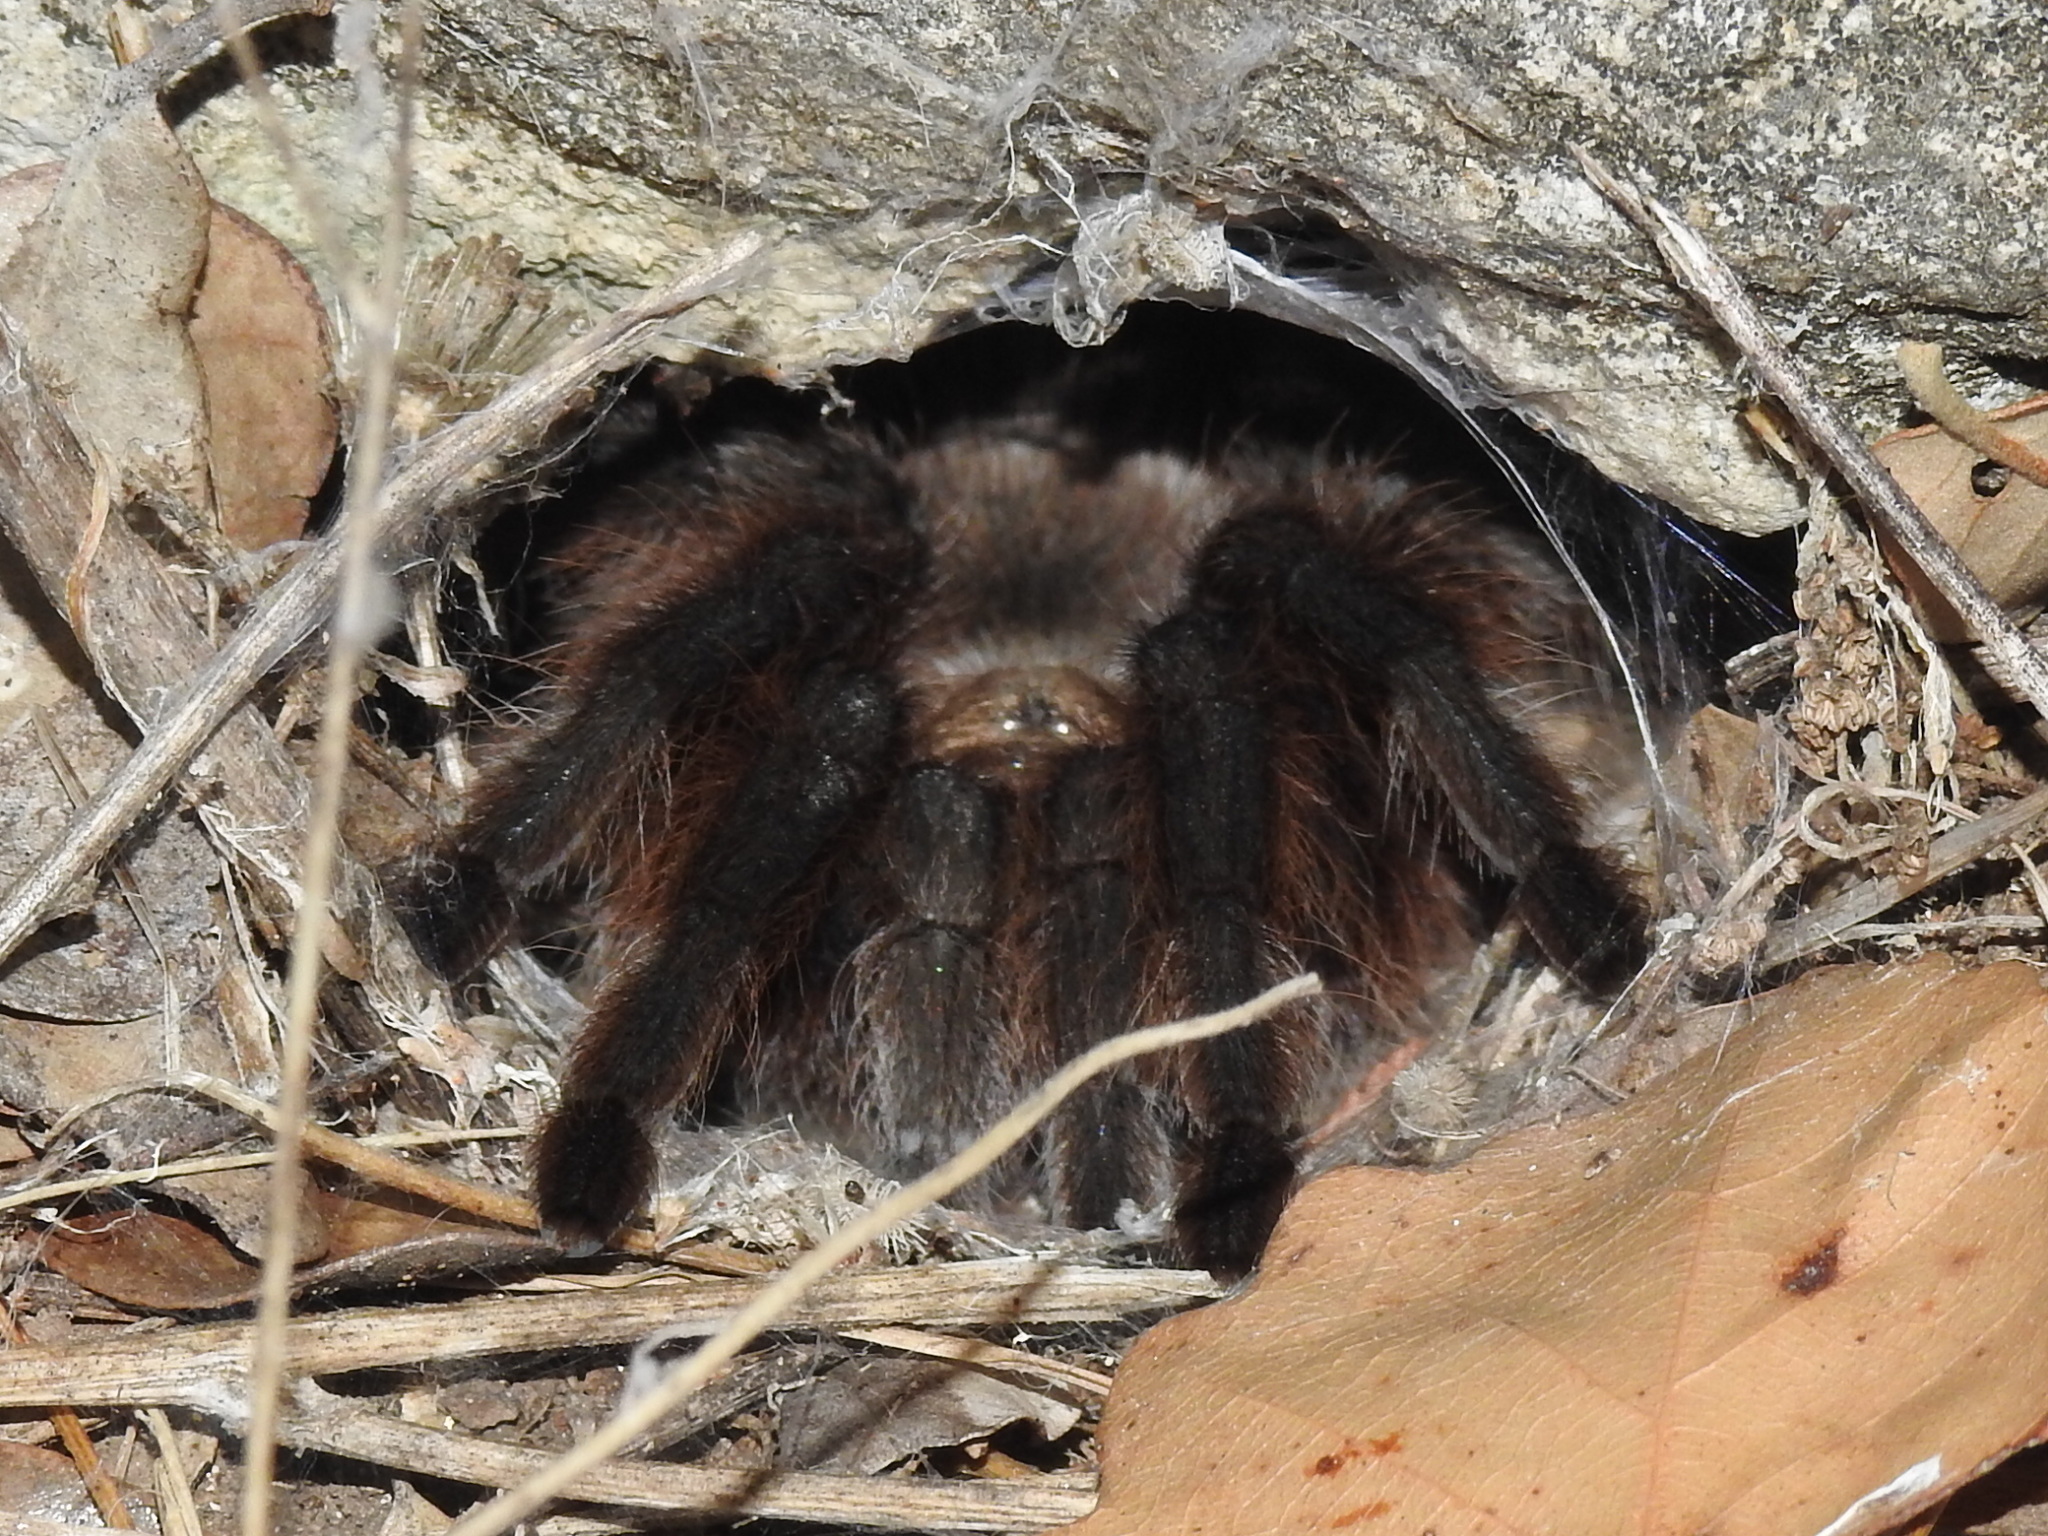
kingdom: Animalia
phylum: Arthropoda
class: Arachnida
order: Araneae
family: Theraphosidae
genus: Aphonopelma
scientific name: Aphonopelma hentzi
